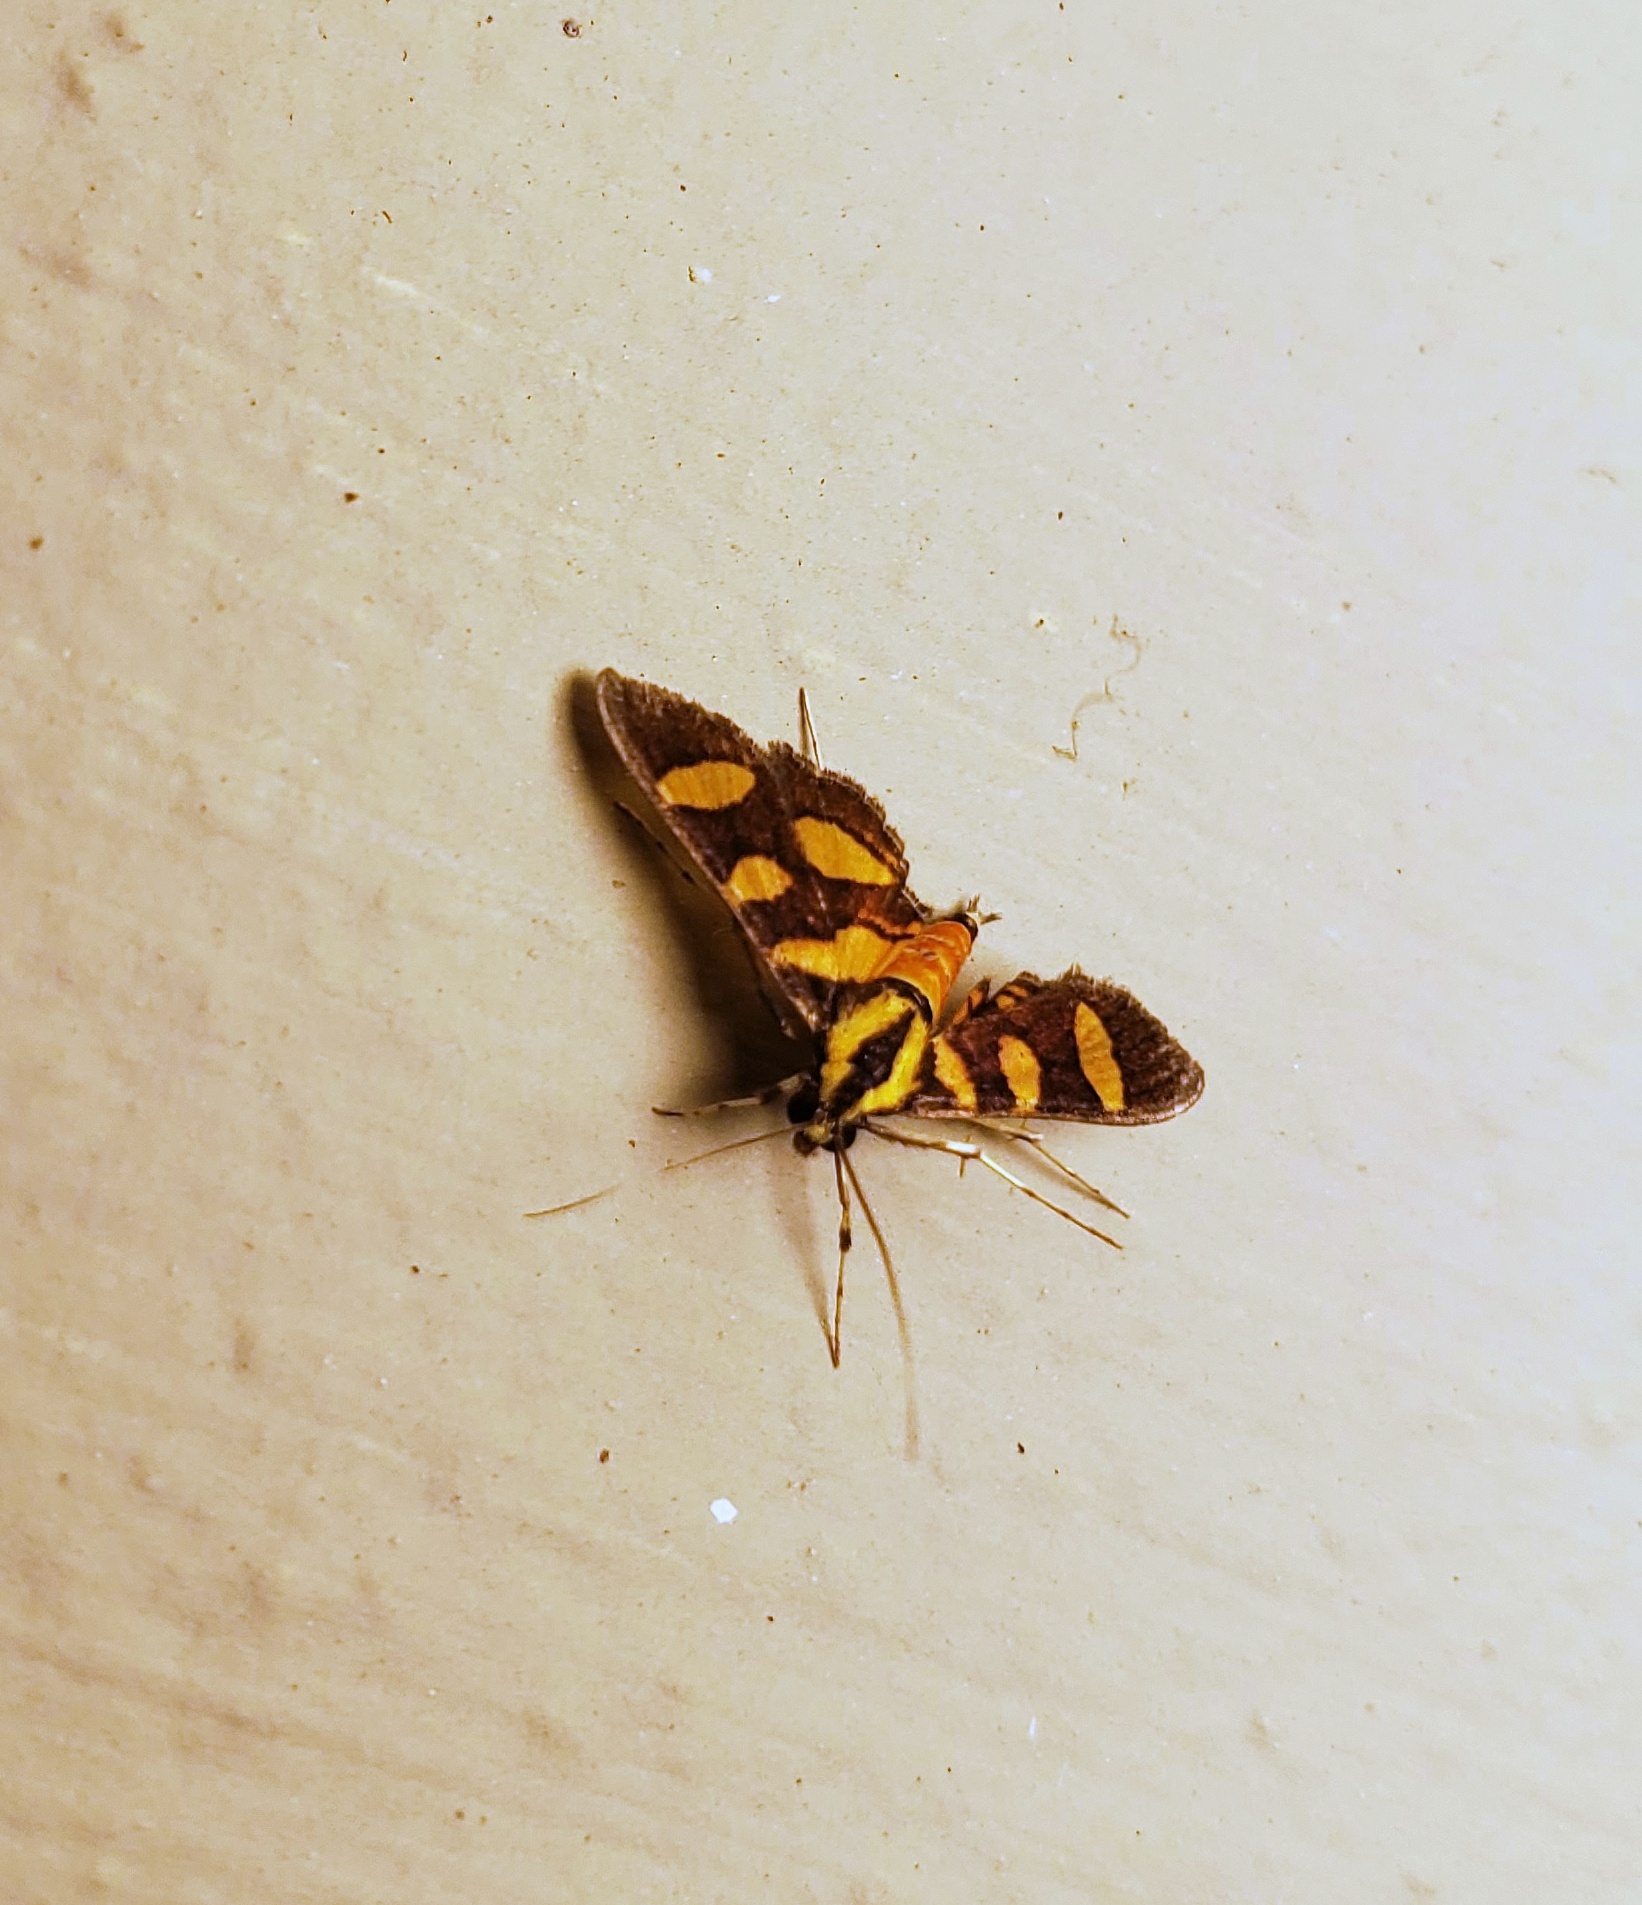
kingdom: Animalia
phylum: Arthropoda
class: Insecta
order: Lepidoptera
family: Crambidae
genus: Syngamia
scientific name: Syngamia florella
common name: Orange-spotted flower moth
